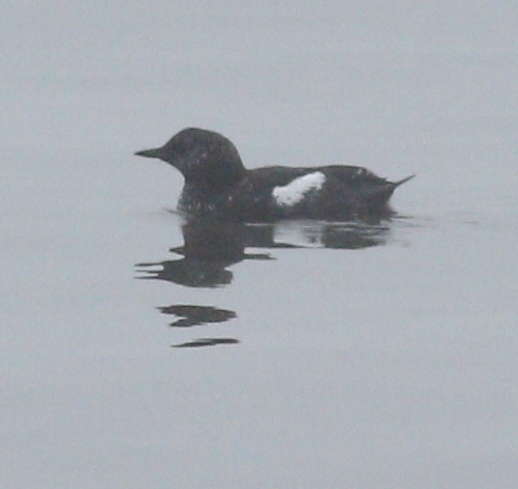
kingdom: Animalia
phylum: Chordata
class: Aves
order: Charadriiformes
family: Alcidae
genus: Cepphus
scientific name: Cepphus grylle
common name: Black guillemot
